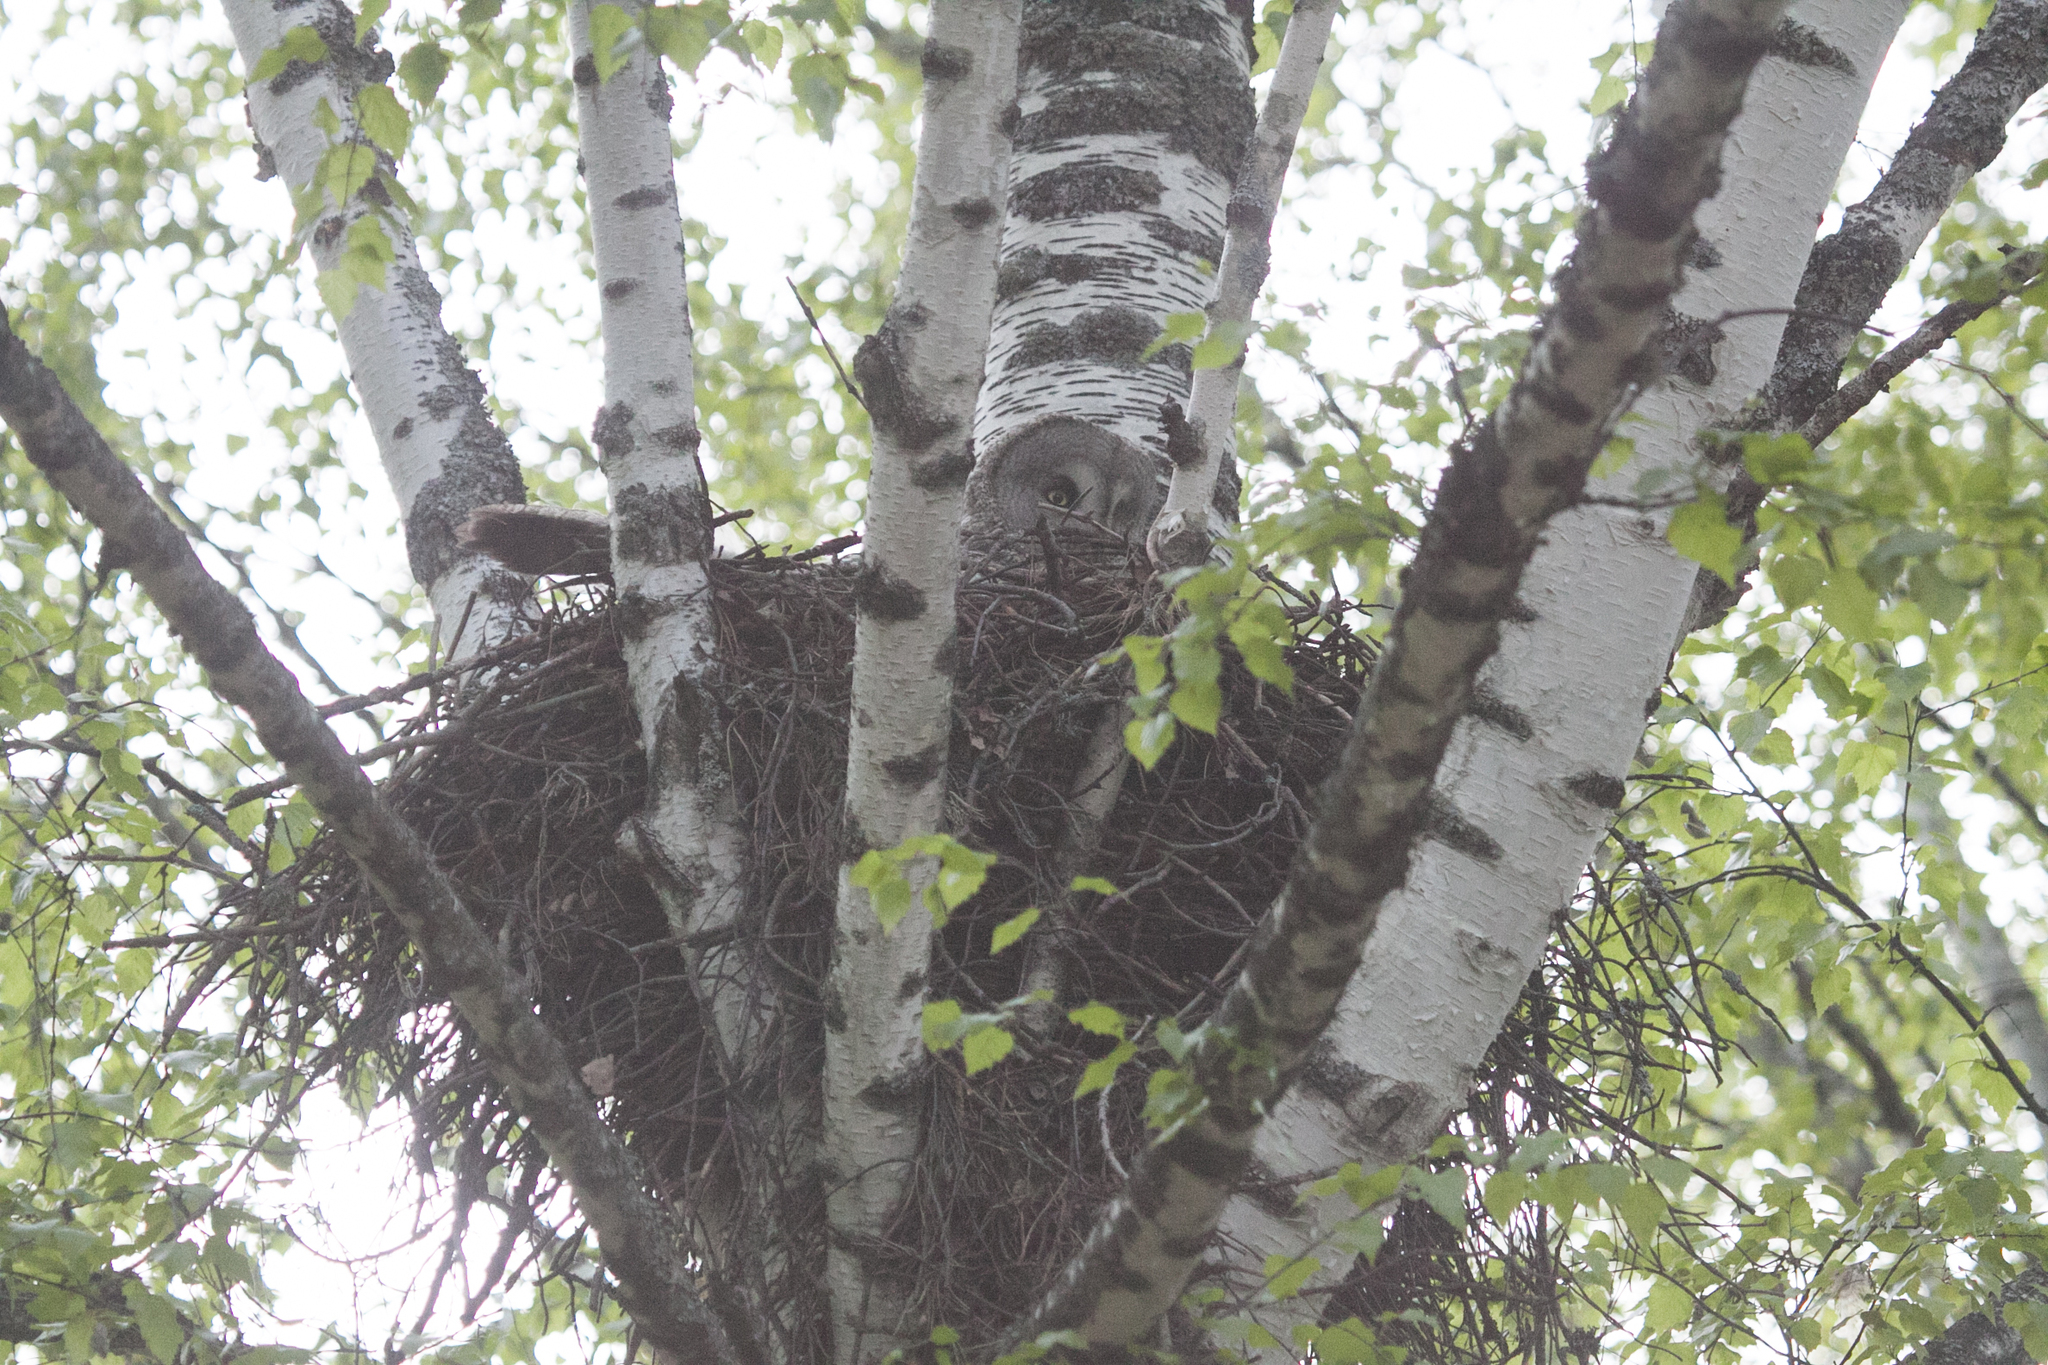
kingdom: Animalia
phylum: Chordata
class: Aves
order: Strigiformes
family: Strigidae
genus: Strix
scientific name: Strix nebulosa
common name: Great grey owl
